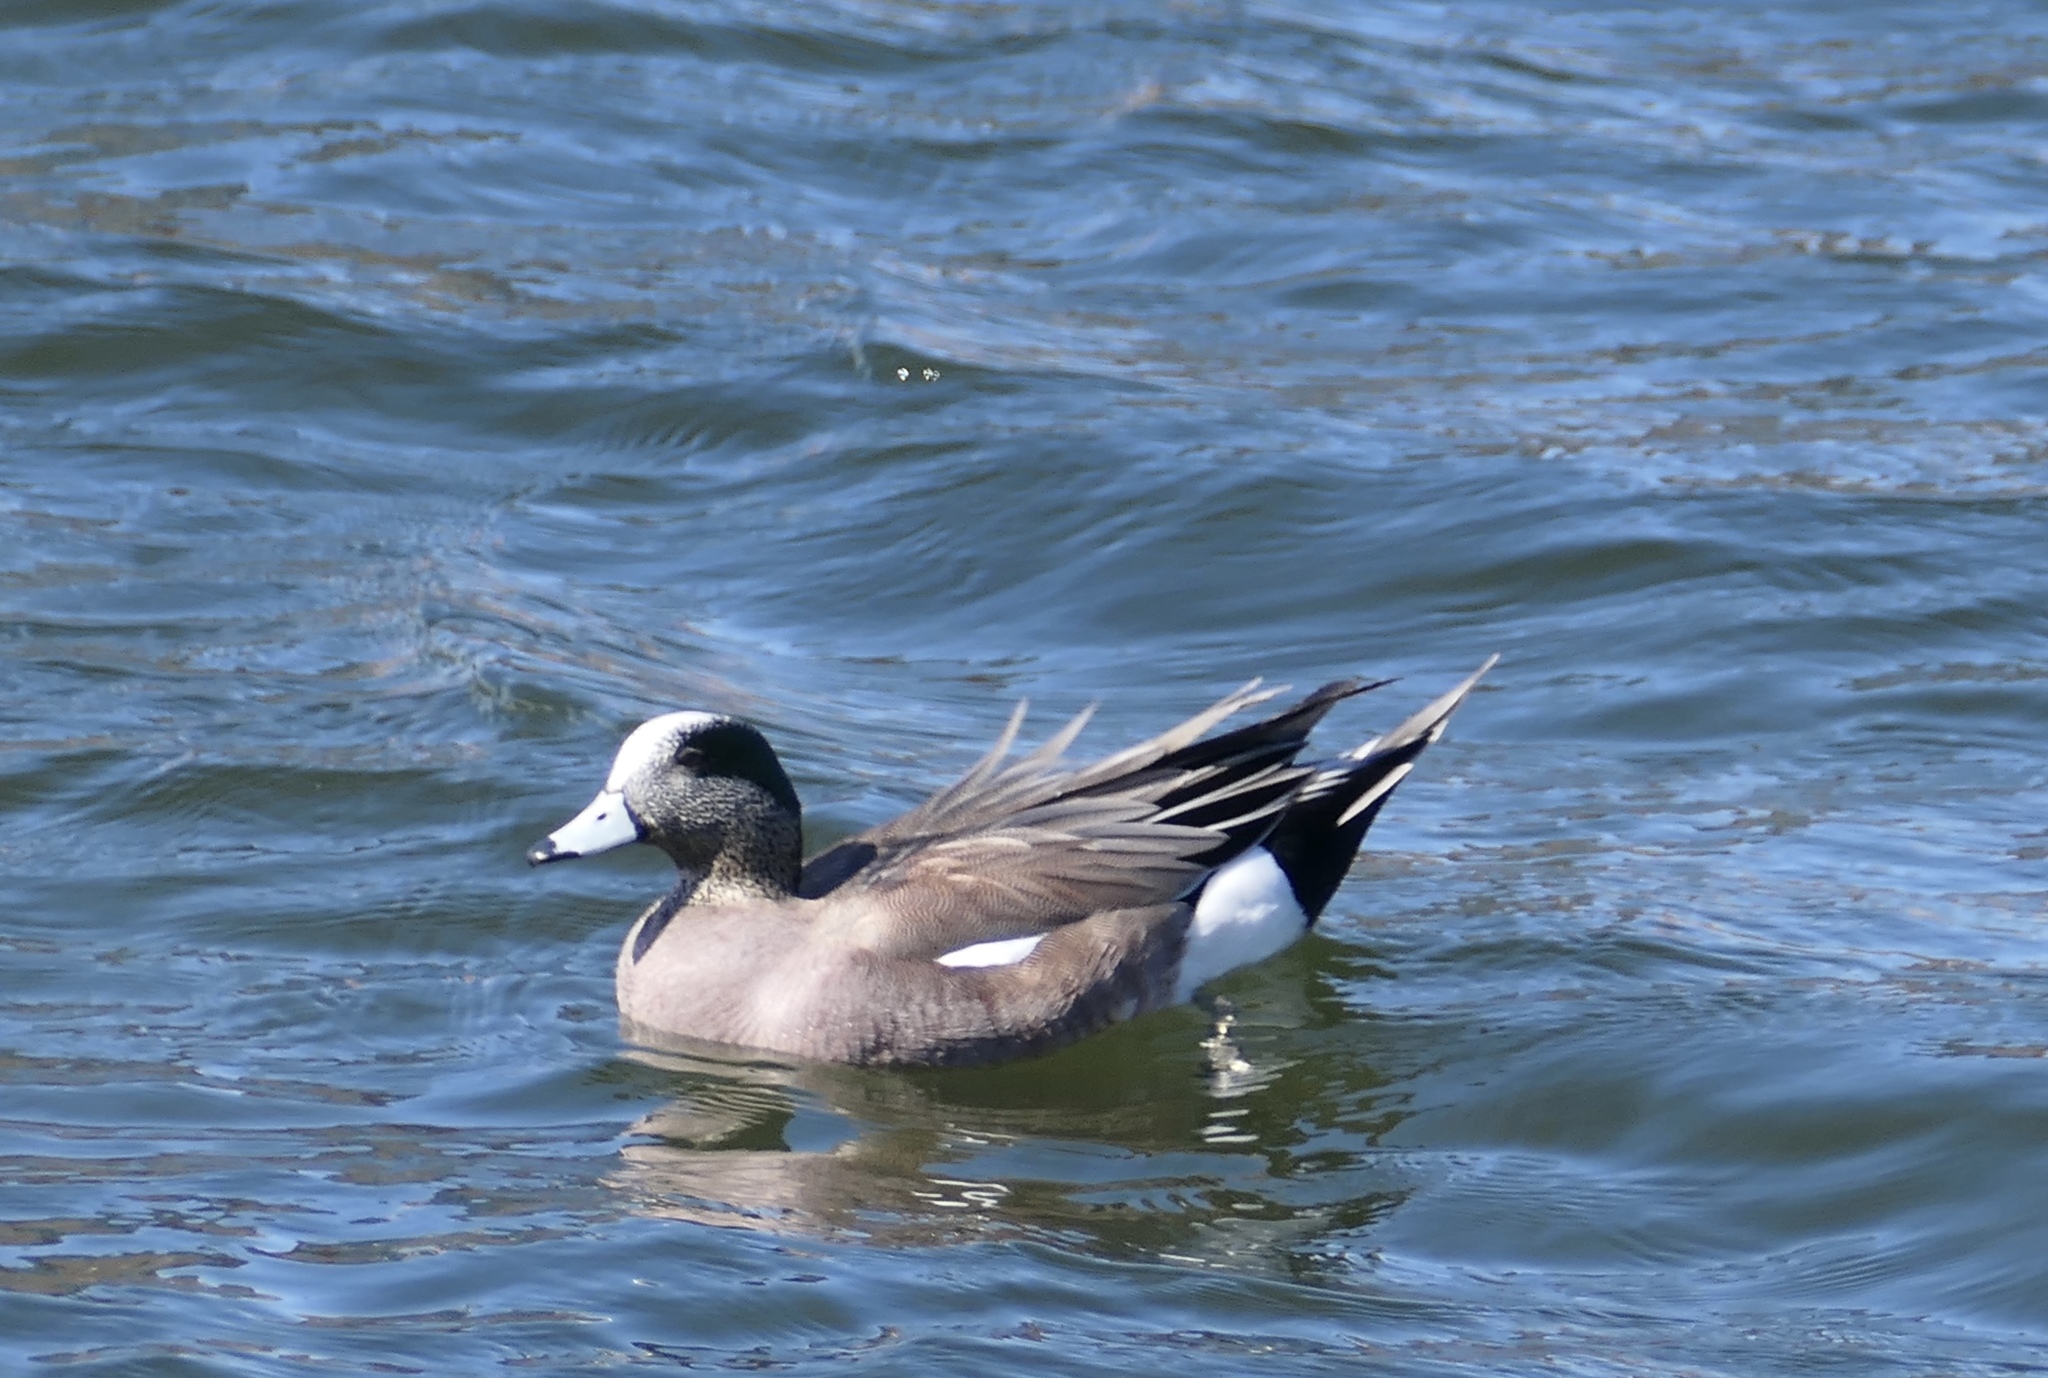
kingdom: Animalia
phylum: Chordata
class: Aves
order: Anseriformes
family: Anatidae
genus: Mareca
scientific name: Mareca americana
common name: American wigeon
